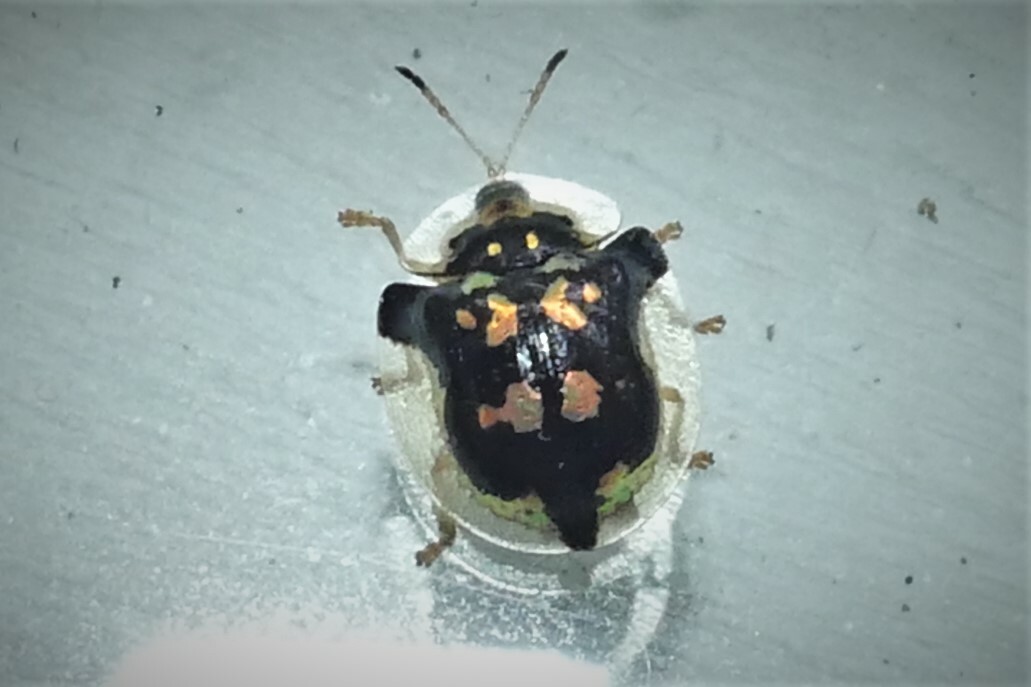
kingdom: Animalia
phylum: Arthropoda
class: Insecta
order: Coleoptera
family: Chrysomelidae
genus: Deloyala
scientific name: Deloyala guttata
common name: Mottled tortoise beetle
